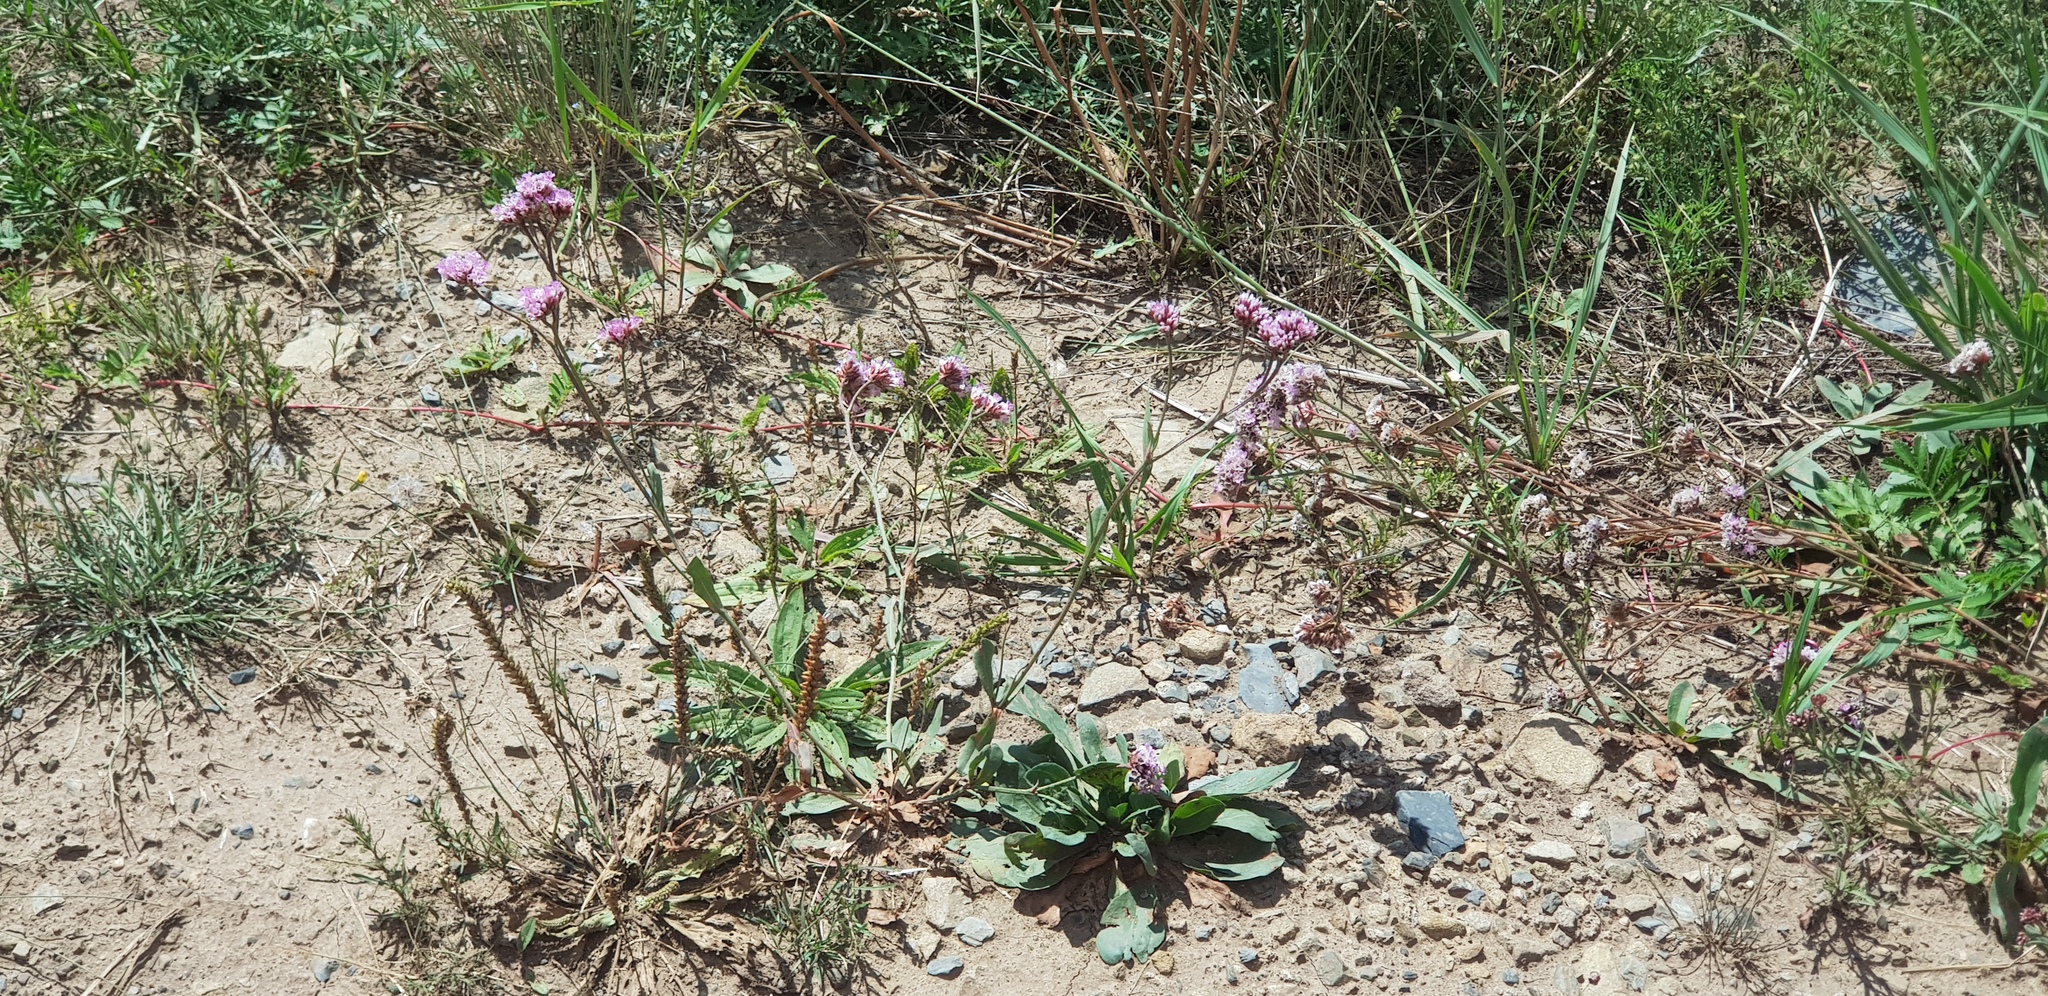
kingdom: Plantae
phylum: Tracheophyta
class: Magnoliopsida
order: Caryophyllales
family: Plumbaginaceae
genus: Goniolimon
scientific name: Goniolimon speciosum
